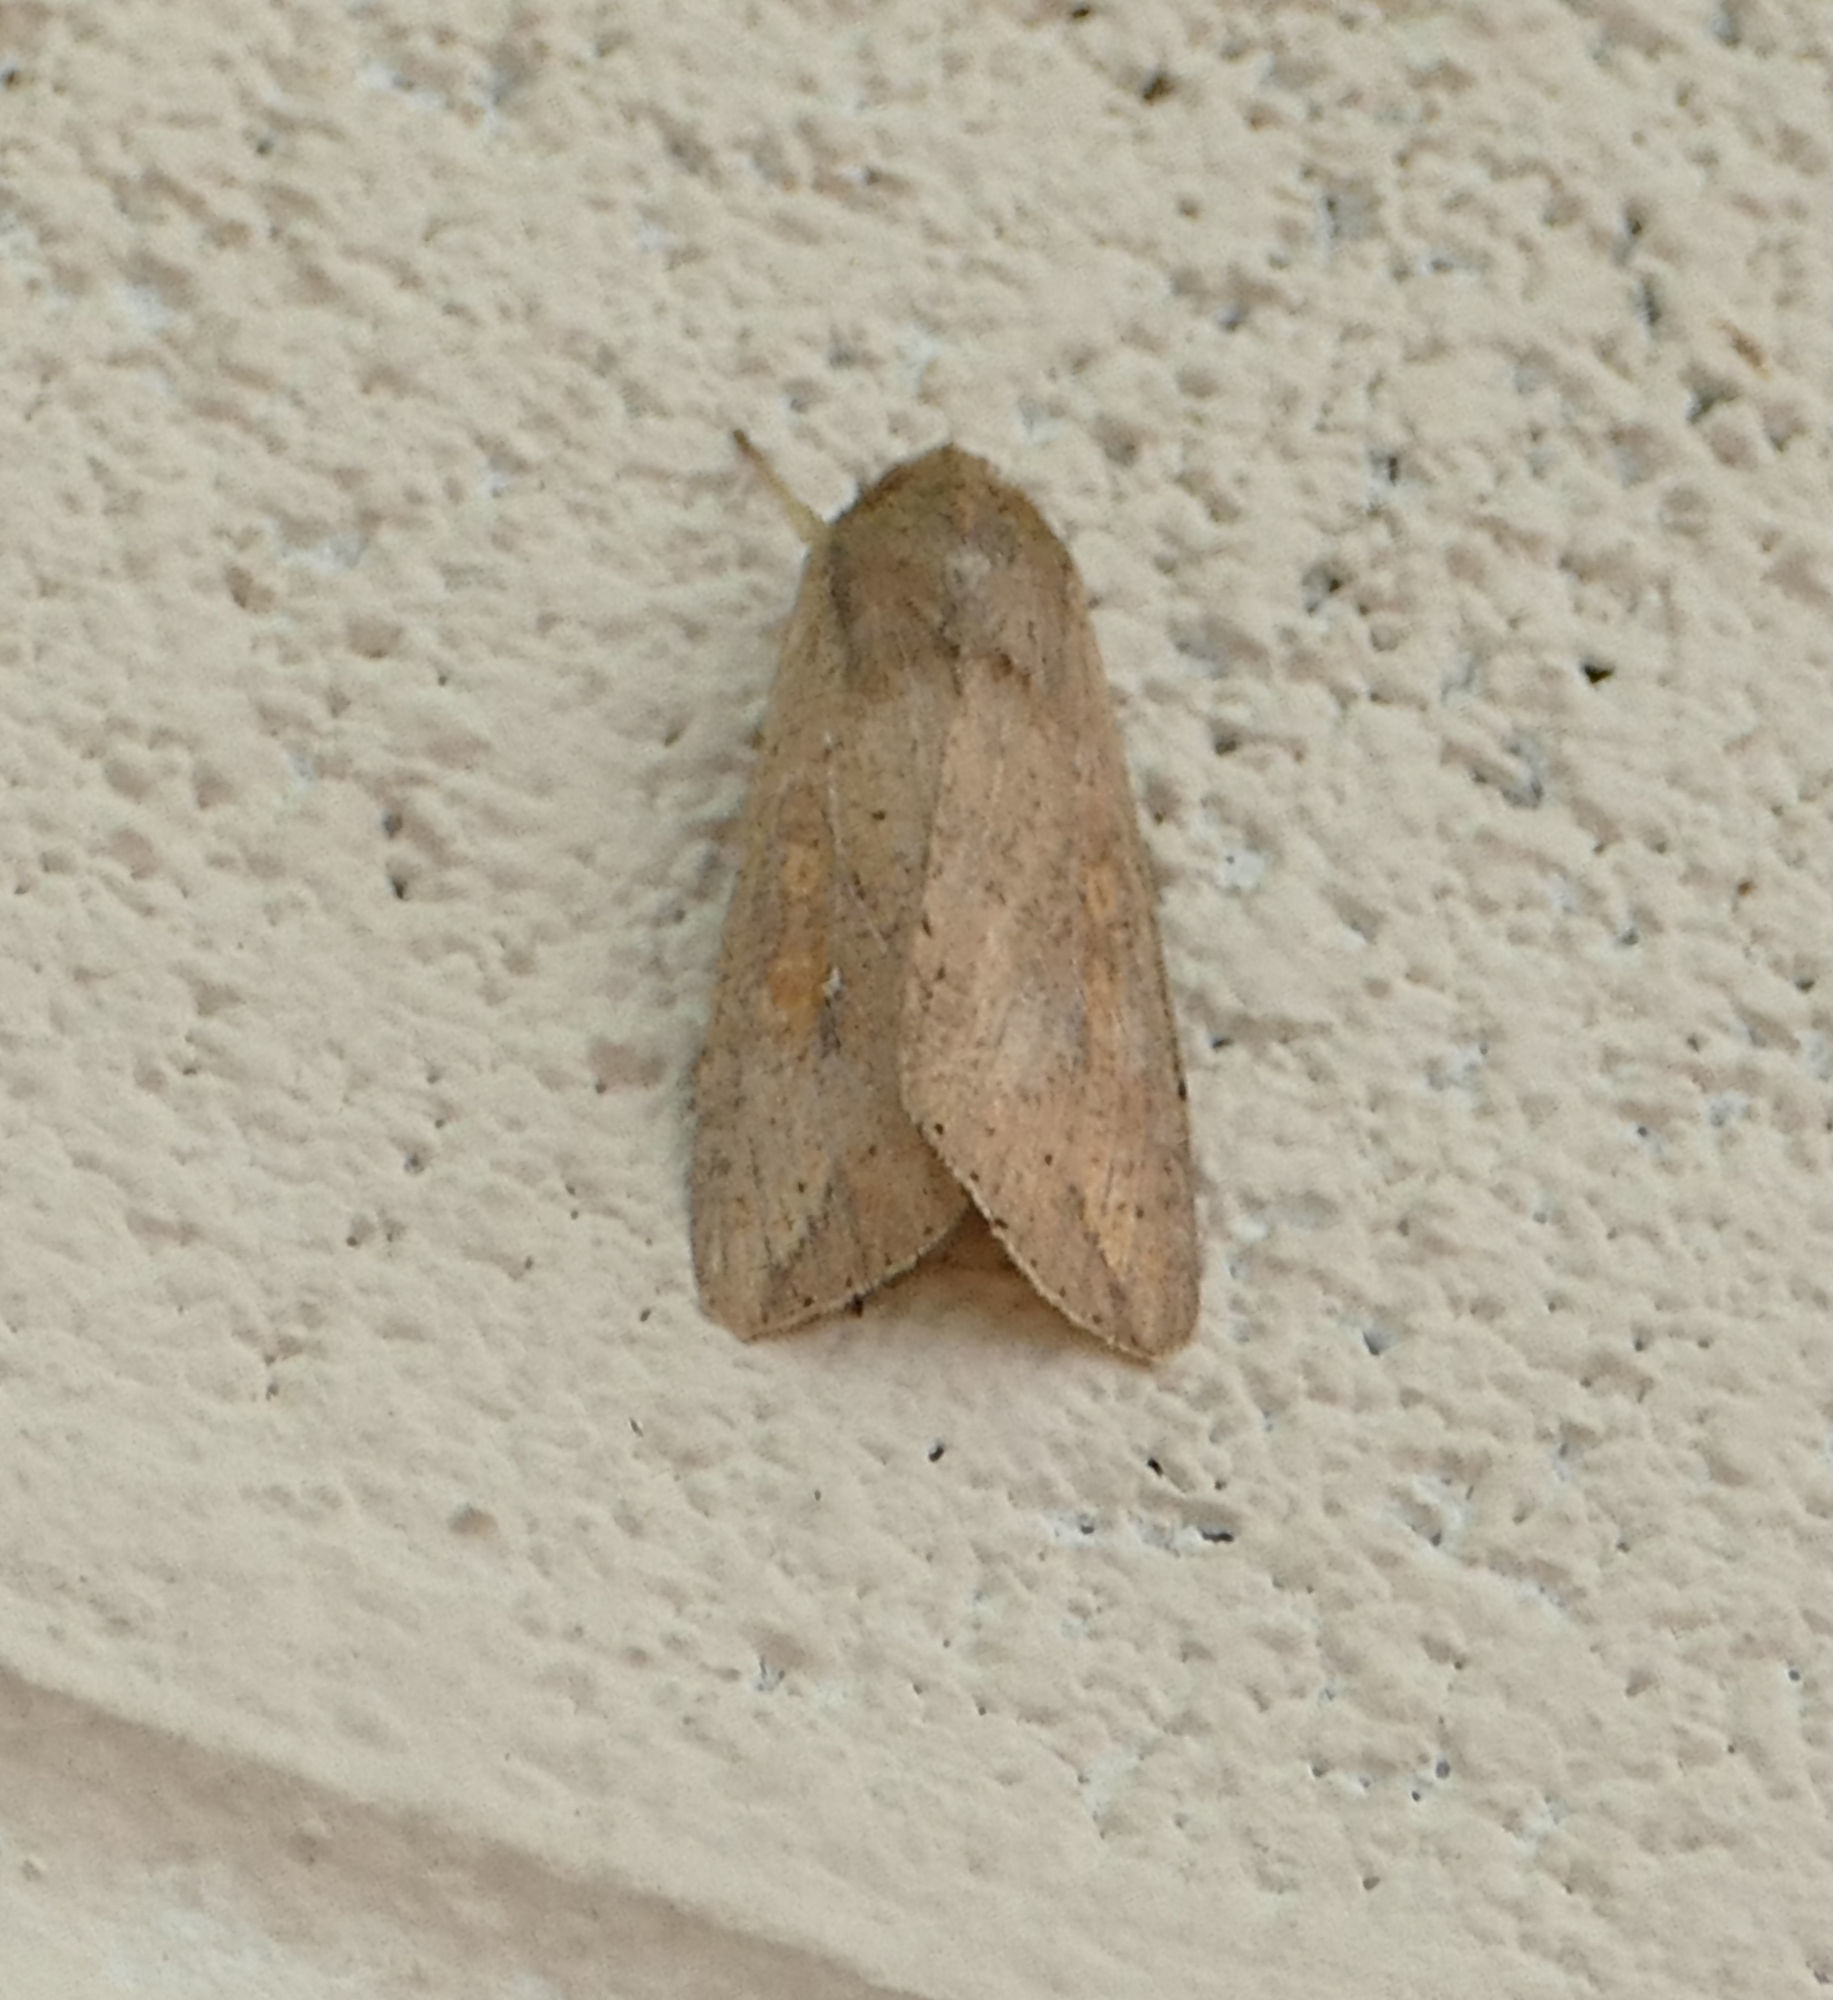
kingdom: Animalia
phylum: Arthropoda
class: Insecta
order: Lepidoptera
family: Noctuidae
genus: Mythimna
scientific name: Mythimna unipuncta
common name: White-speck
